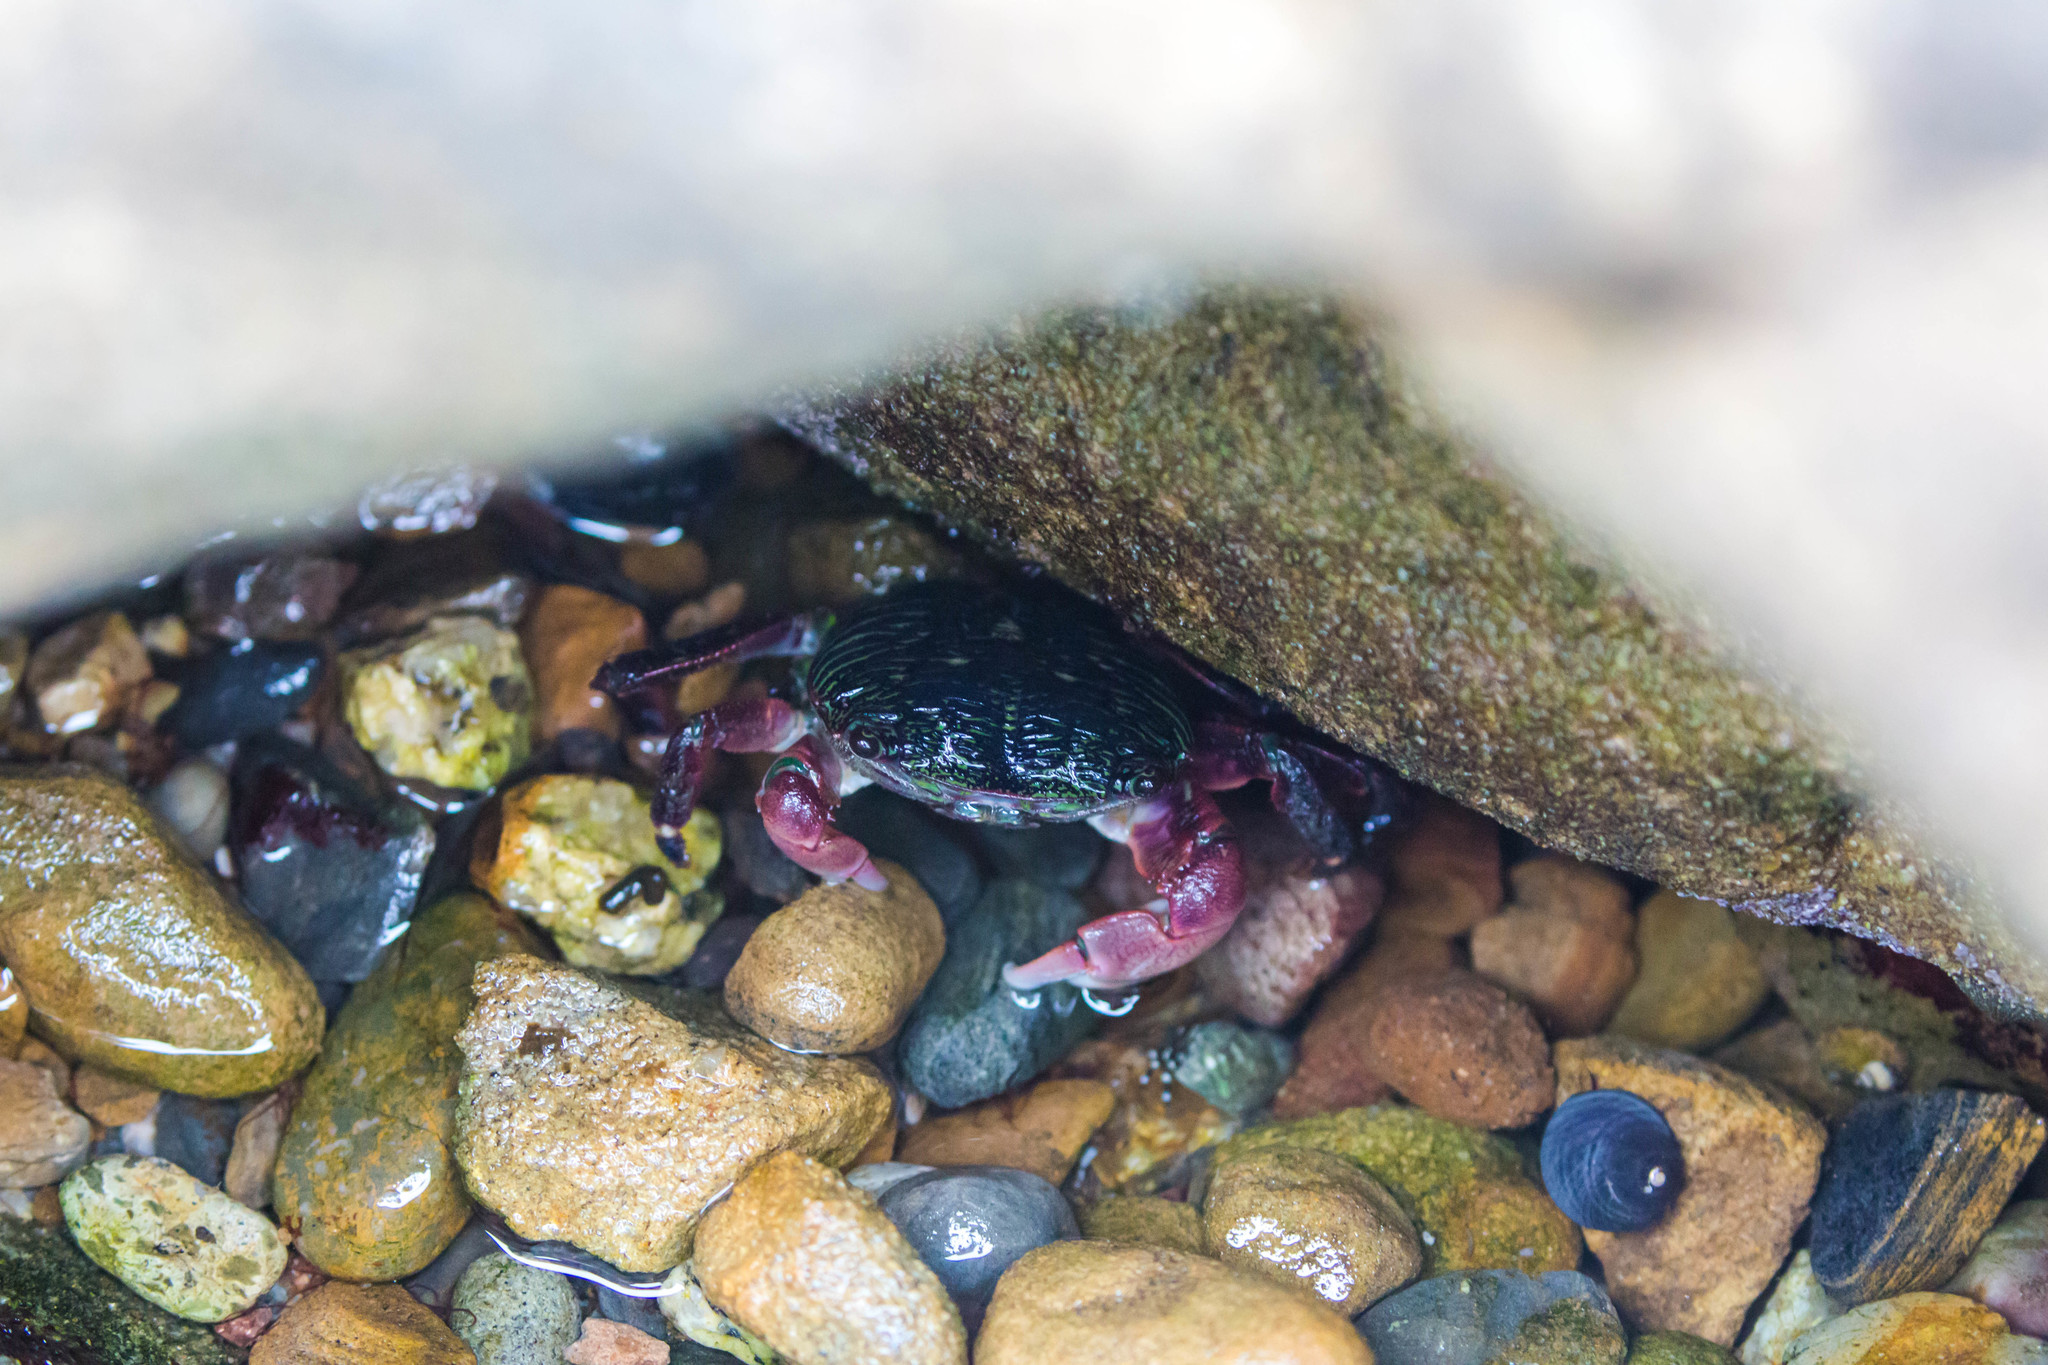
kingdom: Animalia
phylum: Arthropoda
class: Malacostraca
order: Decapoda
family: Grapsidae
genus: Pachygrapsus
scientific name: Pachygrapsus crassipes
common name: Striped shore crab
